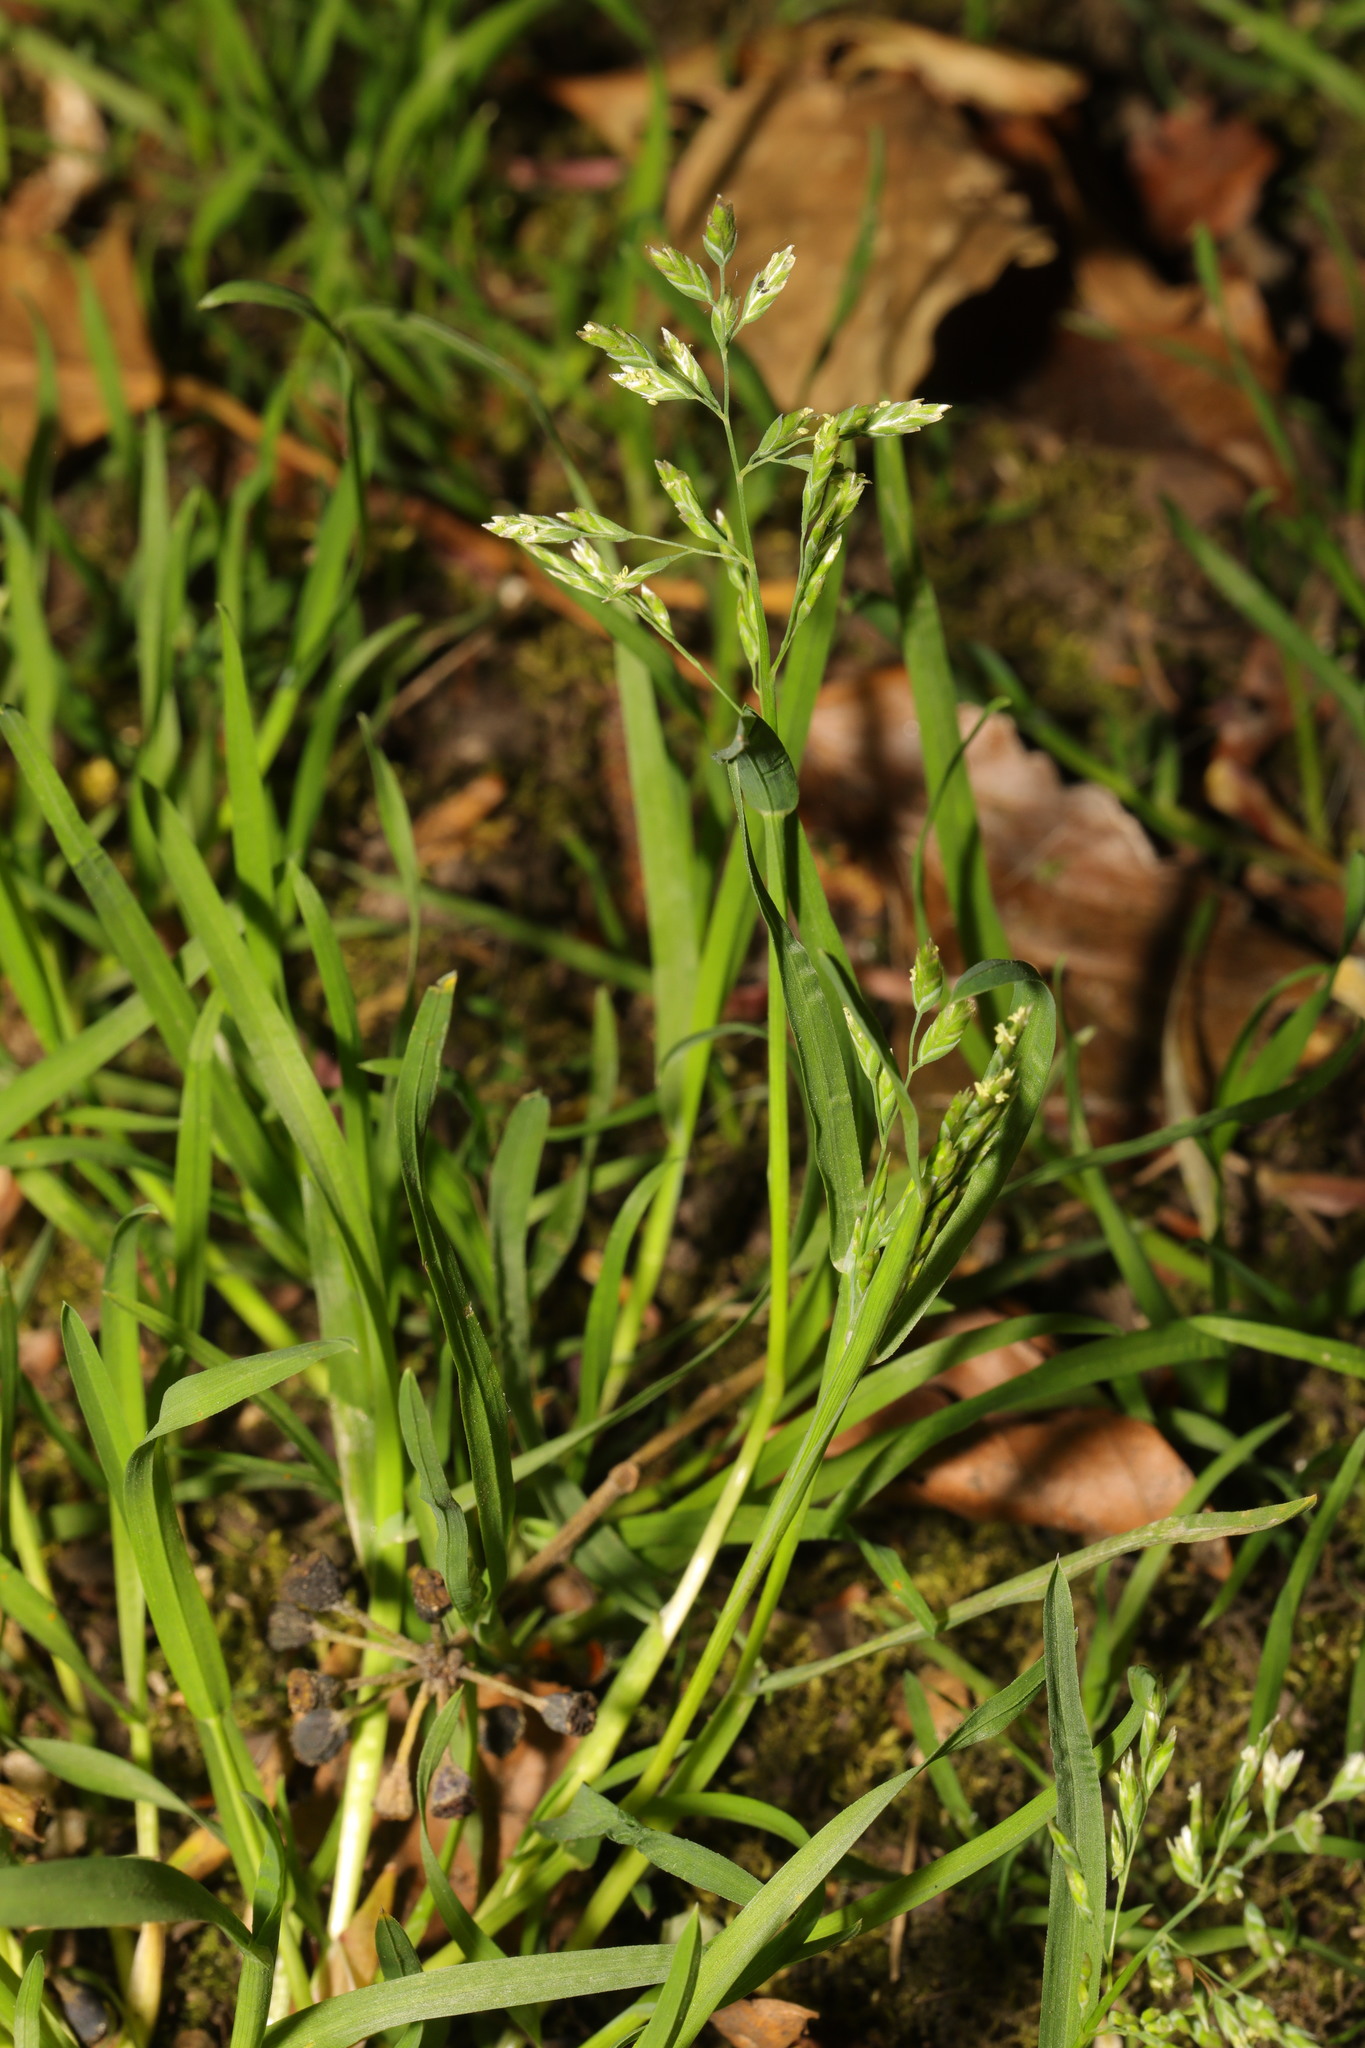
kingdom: Plantae
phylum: Tracheophyta
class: Liliopsida
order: Poales
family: Poaceae
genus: Poa
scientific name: Poa annua
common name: Annual bluegrass
